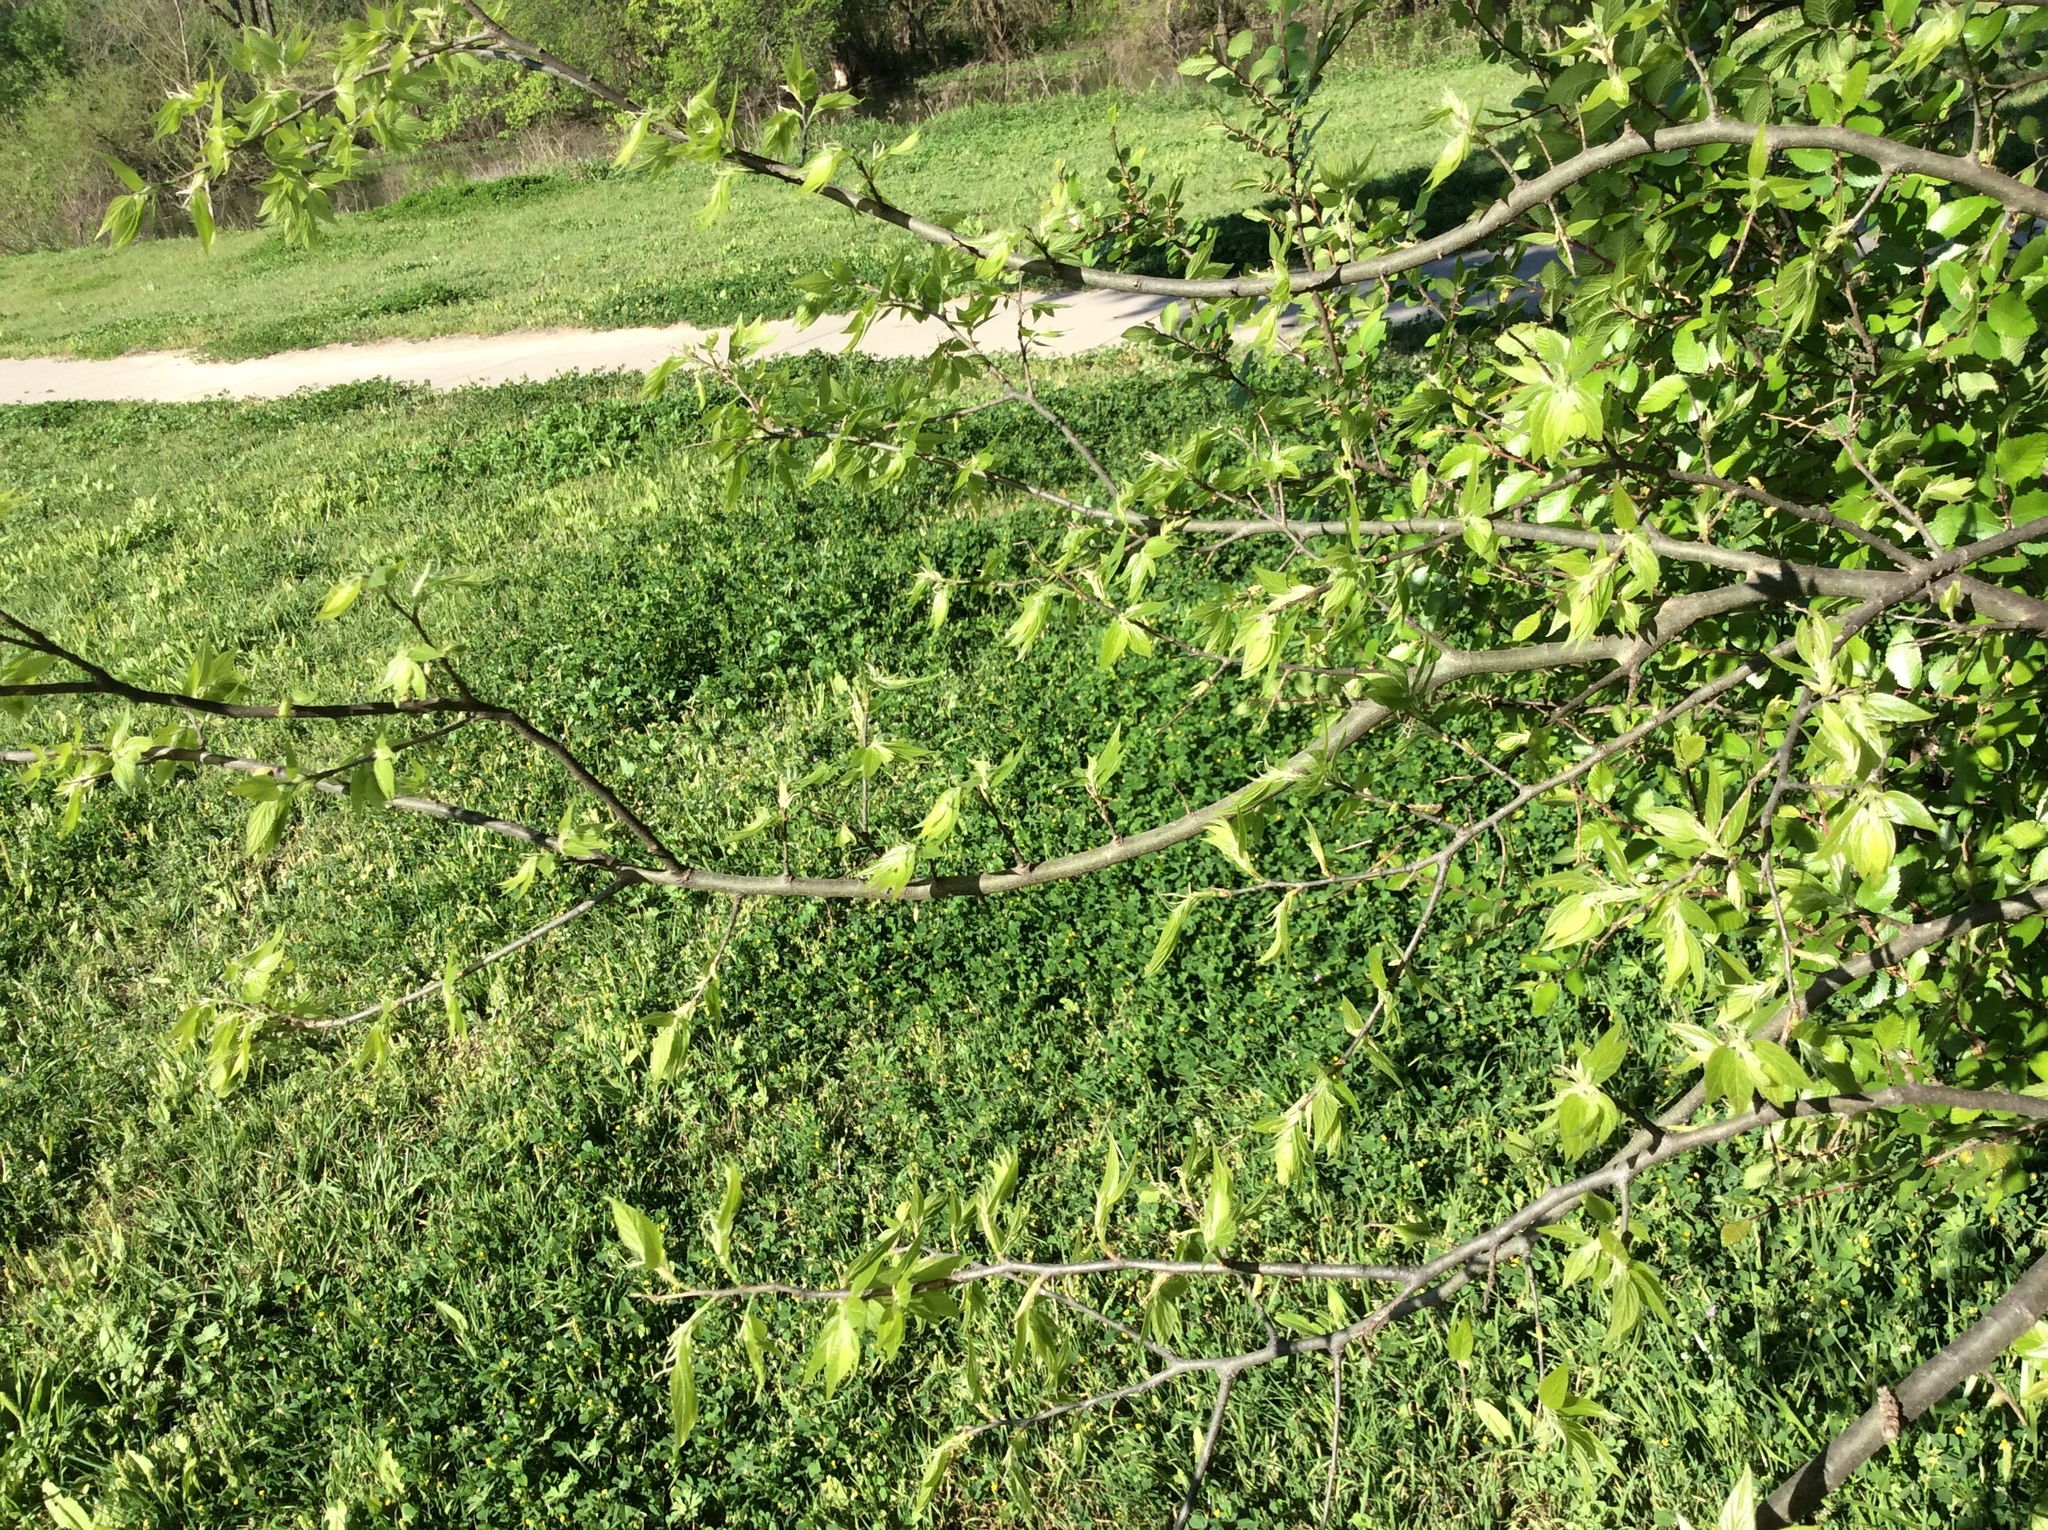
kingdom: Plantae
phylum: Tracheophyta
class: Magnoliopsida
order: Rosales
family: Cannabaceae
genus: Celtis
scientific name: Celtis laevigata
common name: Sugarberry
